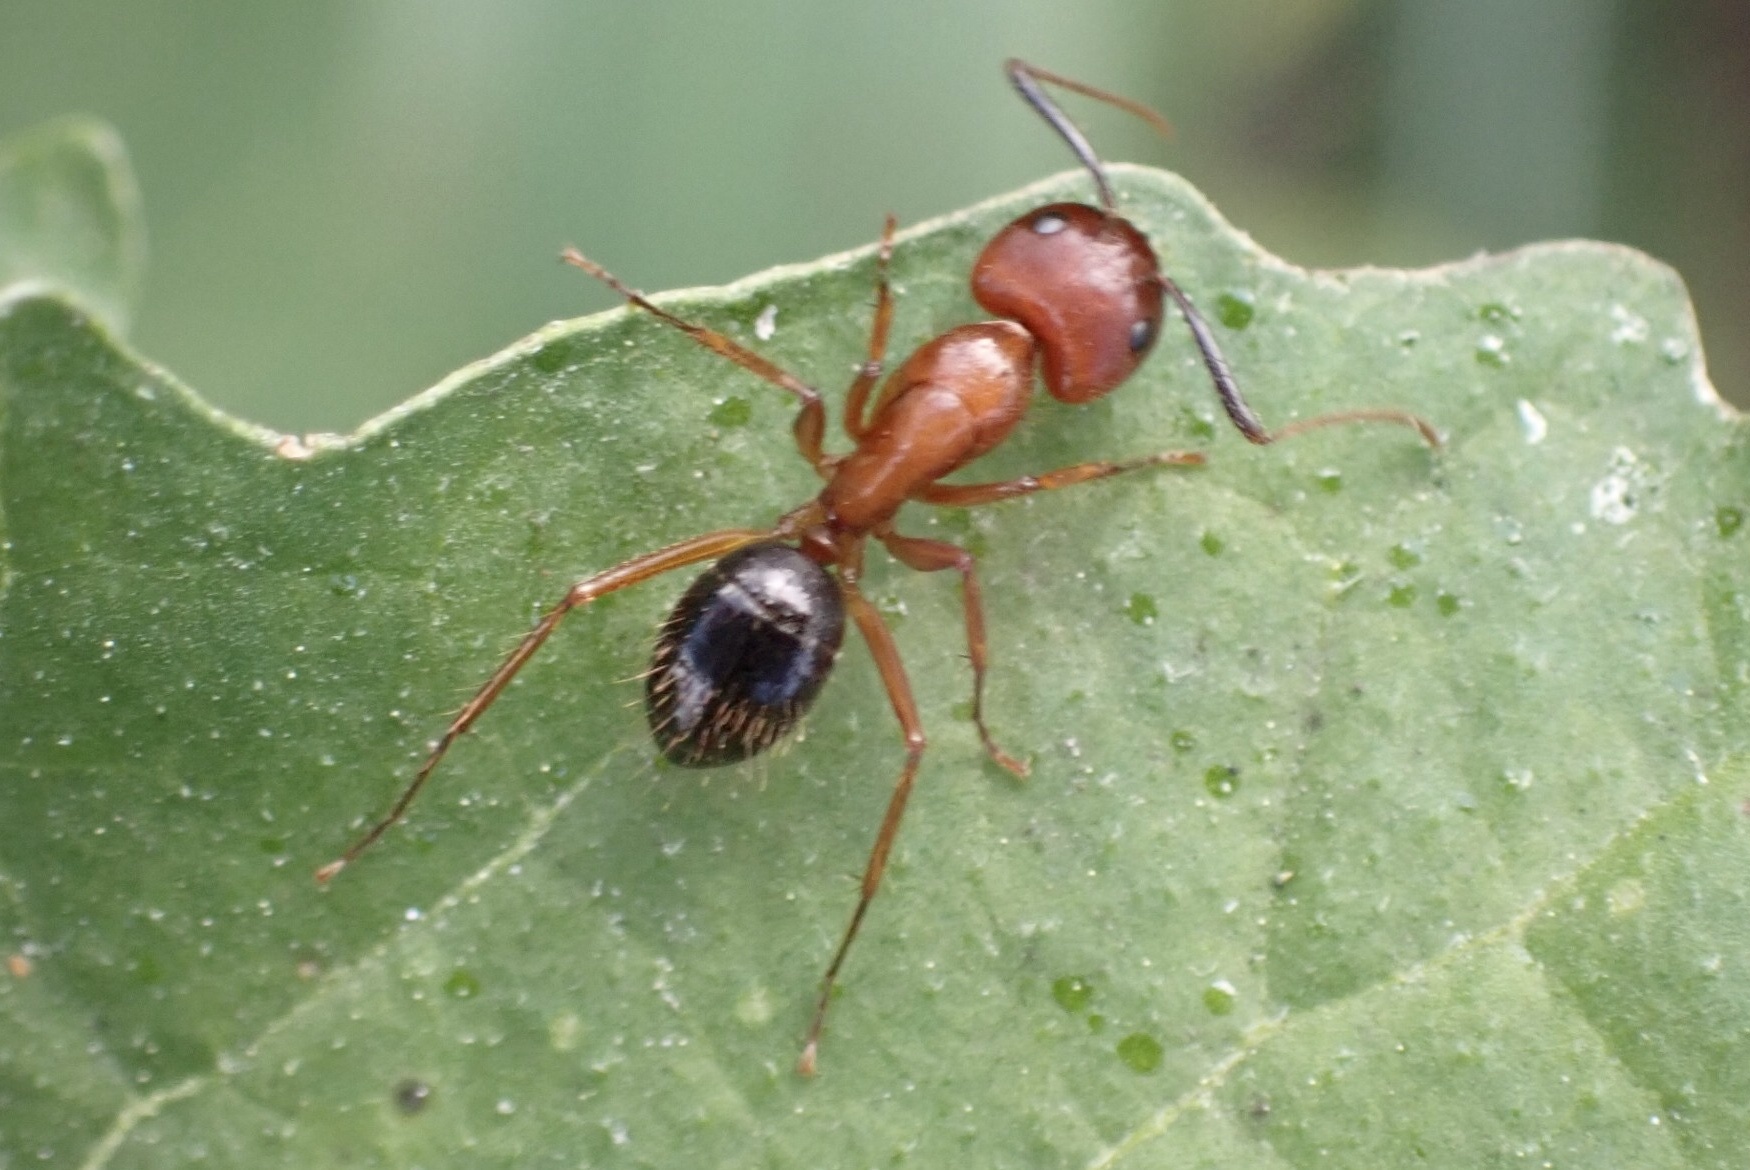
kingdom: Animalia
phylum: Arthropoda
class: Insecta
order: Hymenoptera
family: Formicidae
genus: Camponotus
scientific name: Camponotus floridanus
